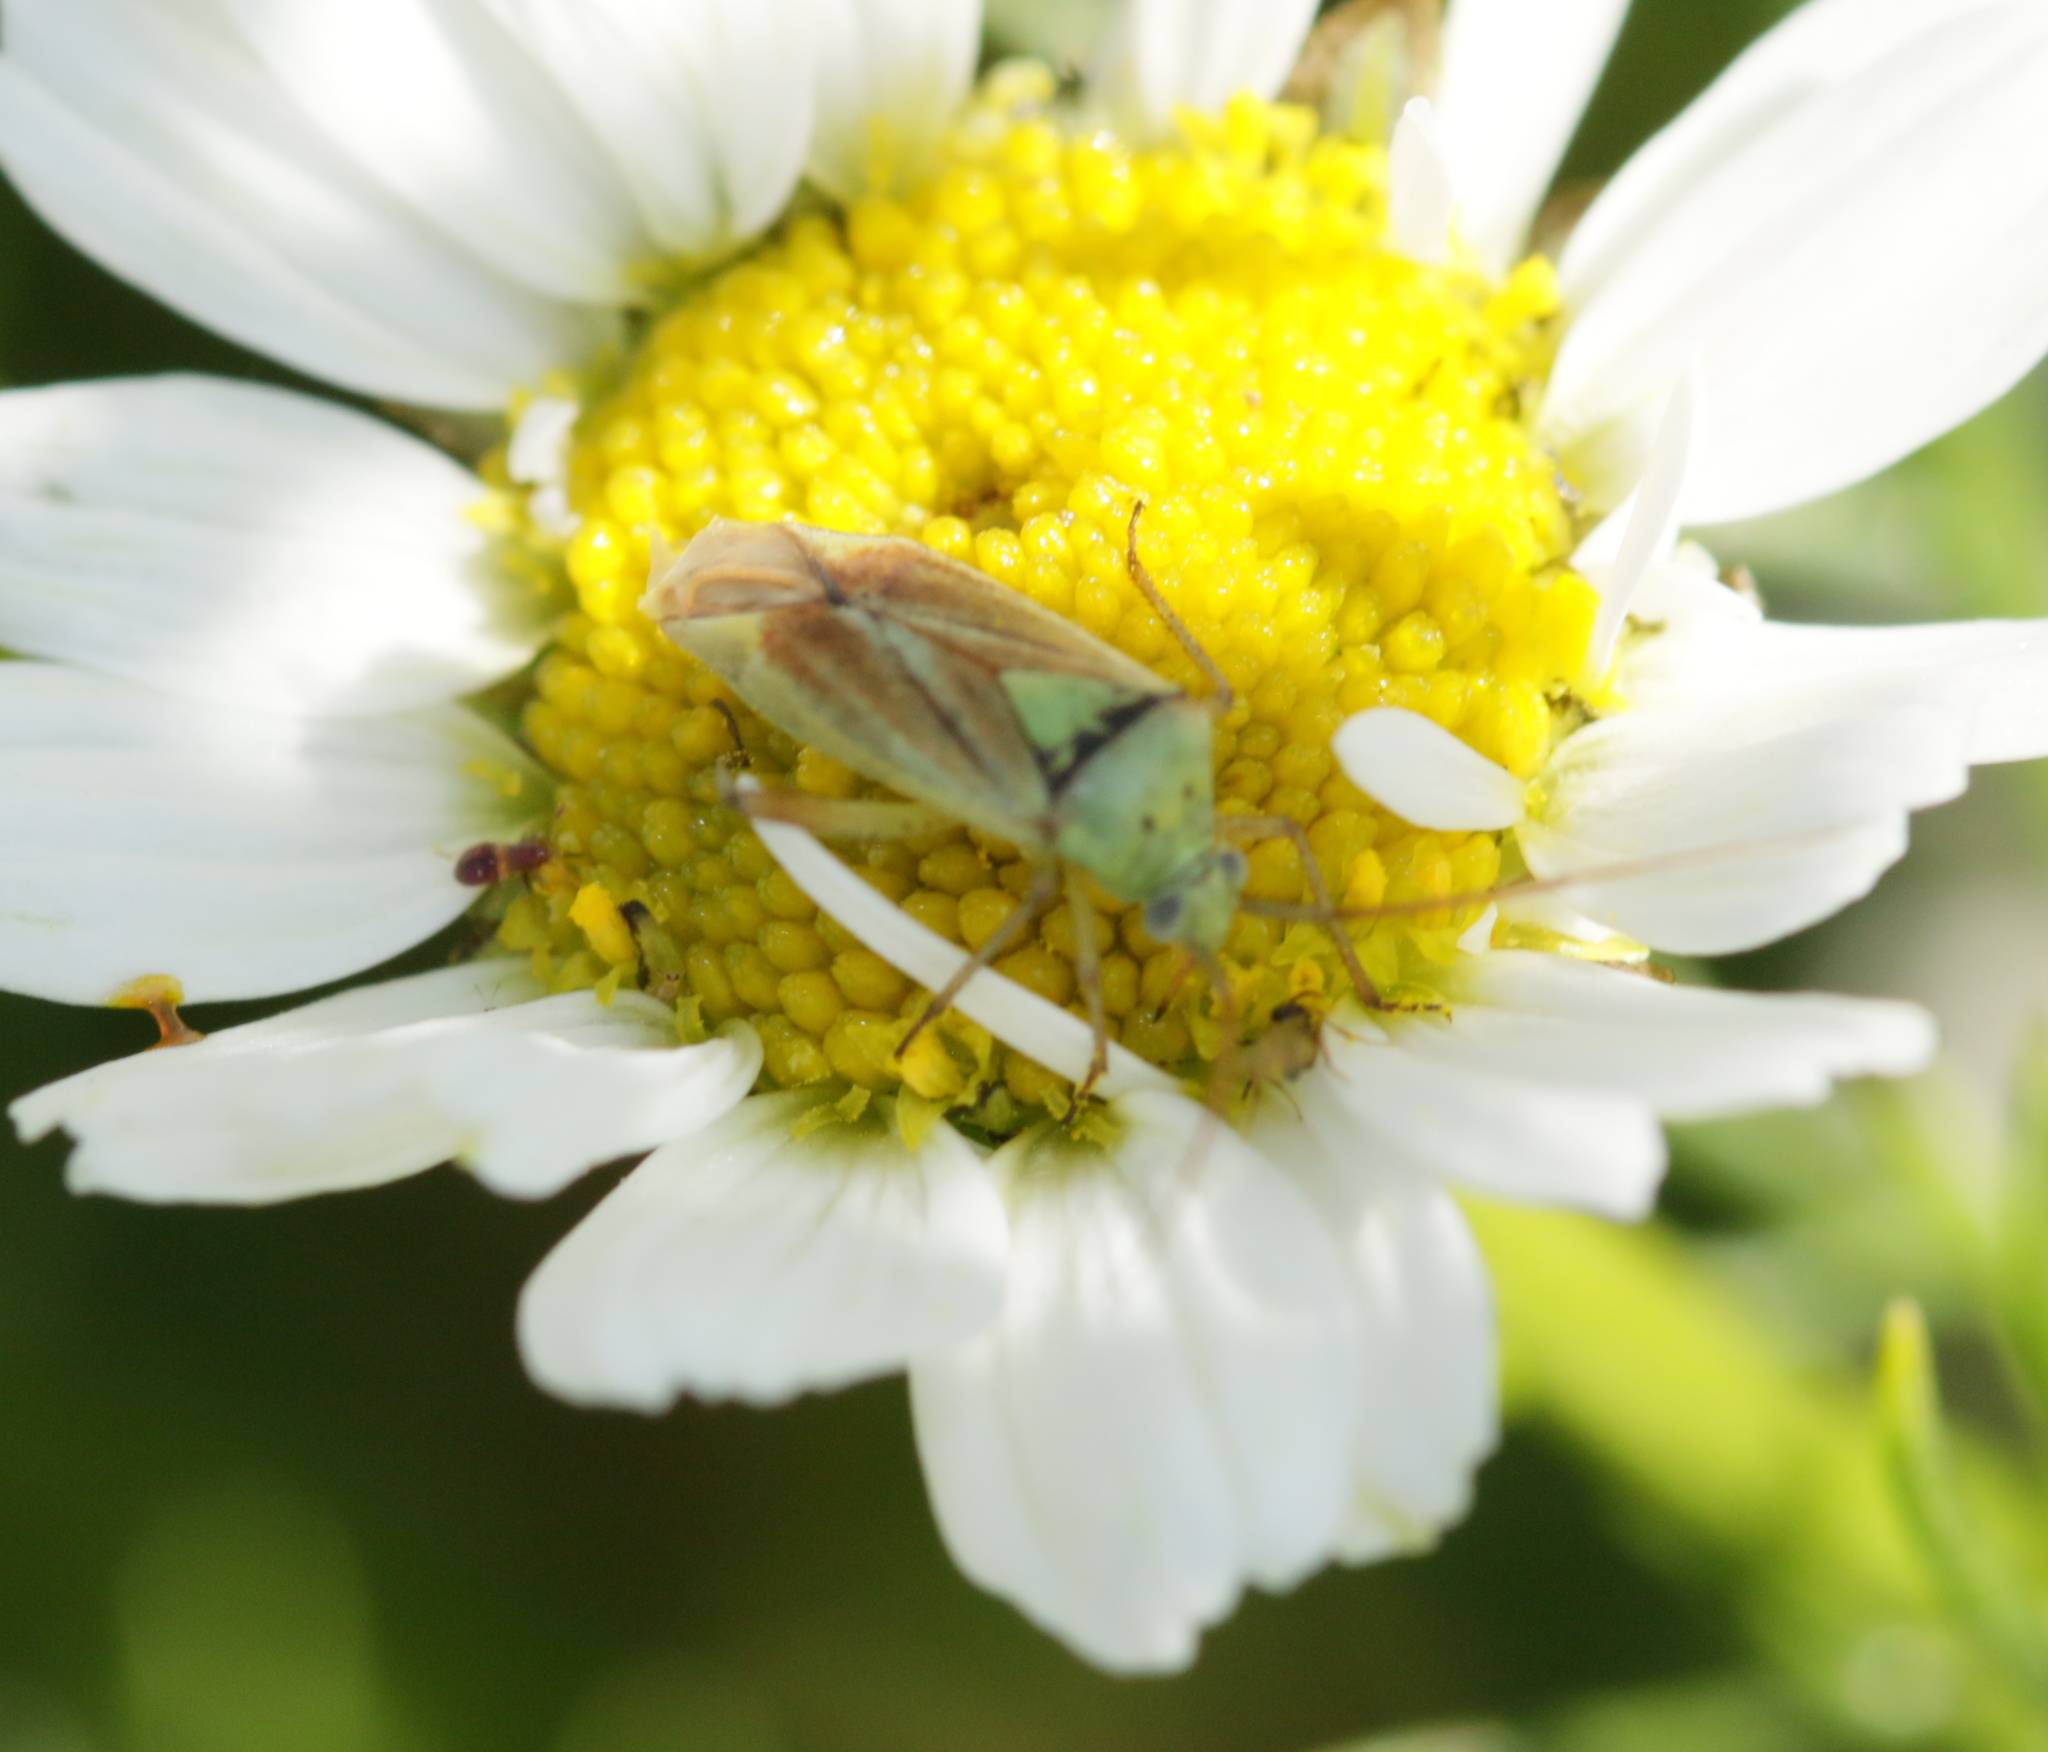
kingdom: Animalia
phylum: Arthropoda
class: Insecta
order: Hemiptera
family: Miridae
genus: Closterotomus
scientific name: Closterotomus norvegicus
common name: Plant bug
